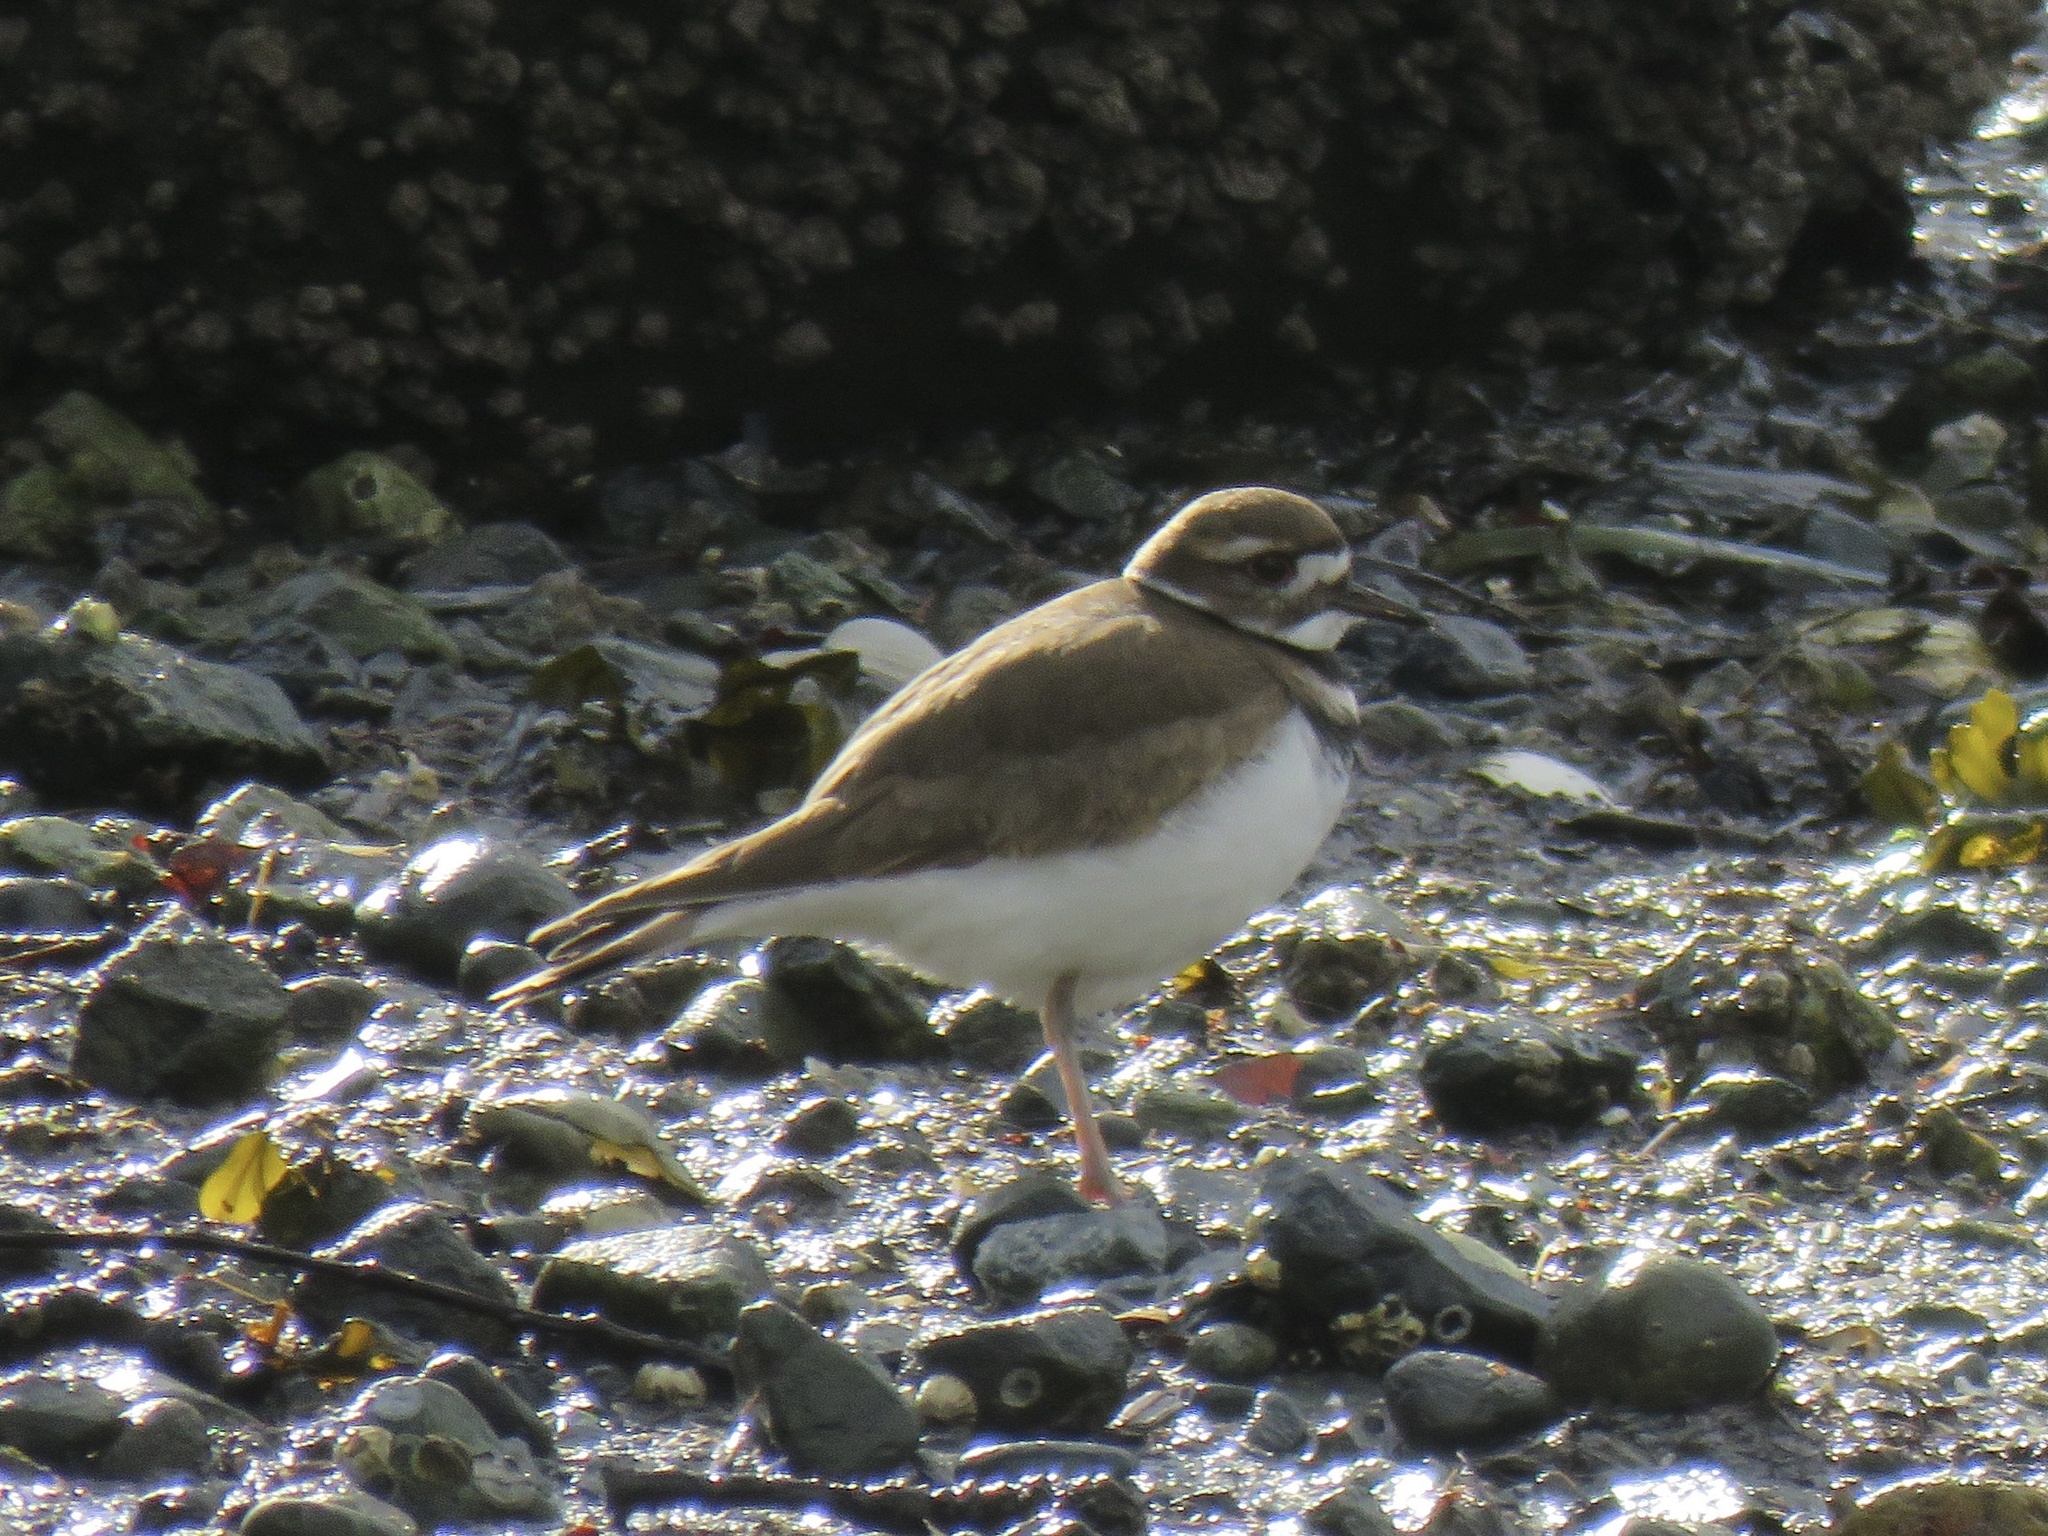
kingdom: Animalia
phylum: Chordata
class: Aves
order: Charadriiformes
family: Charadriidae
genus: Charadrius
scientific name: Charadrius vociferus
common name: Killdeer
